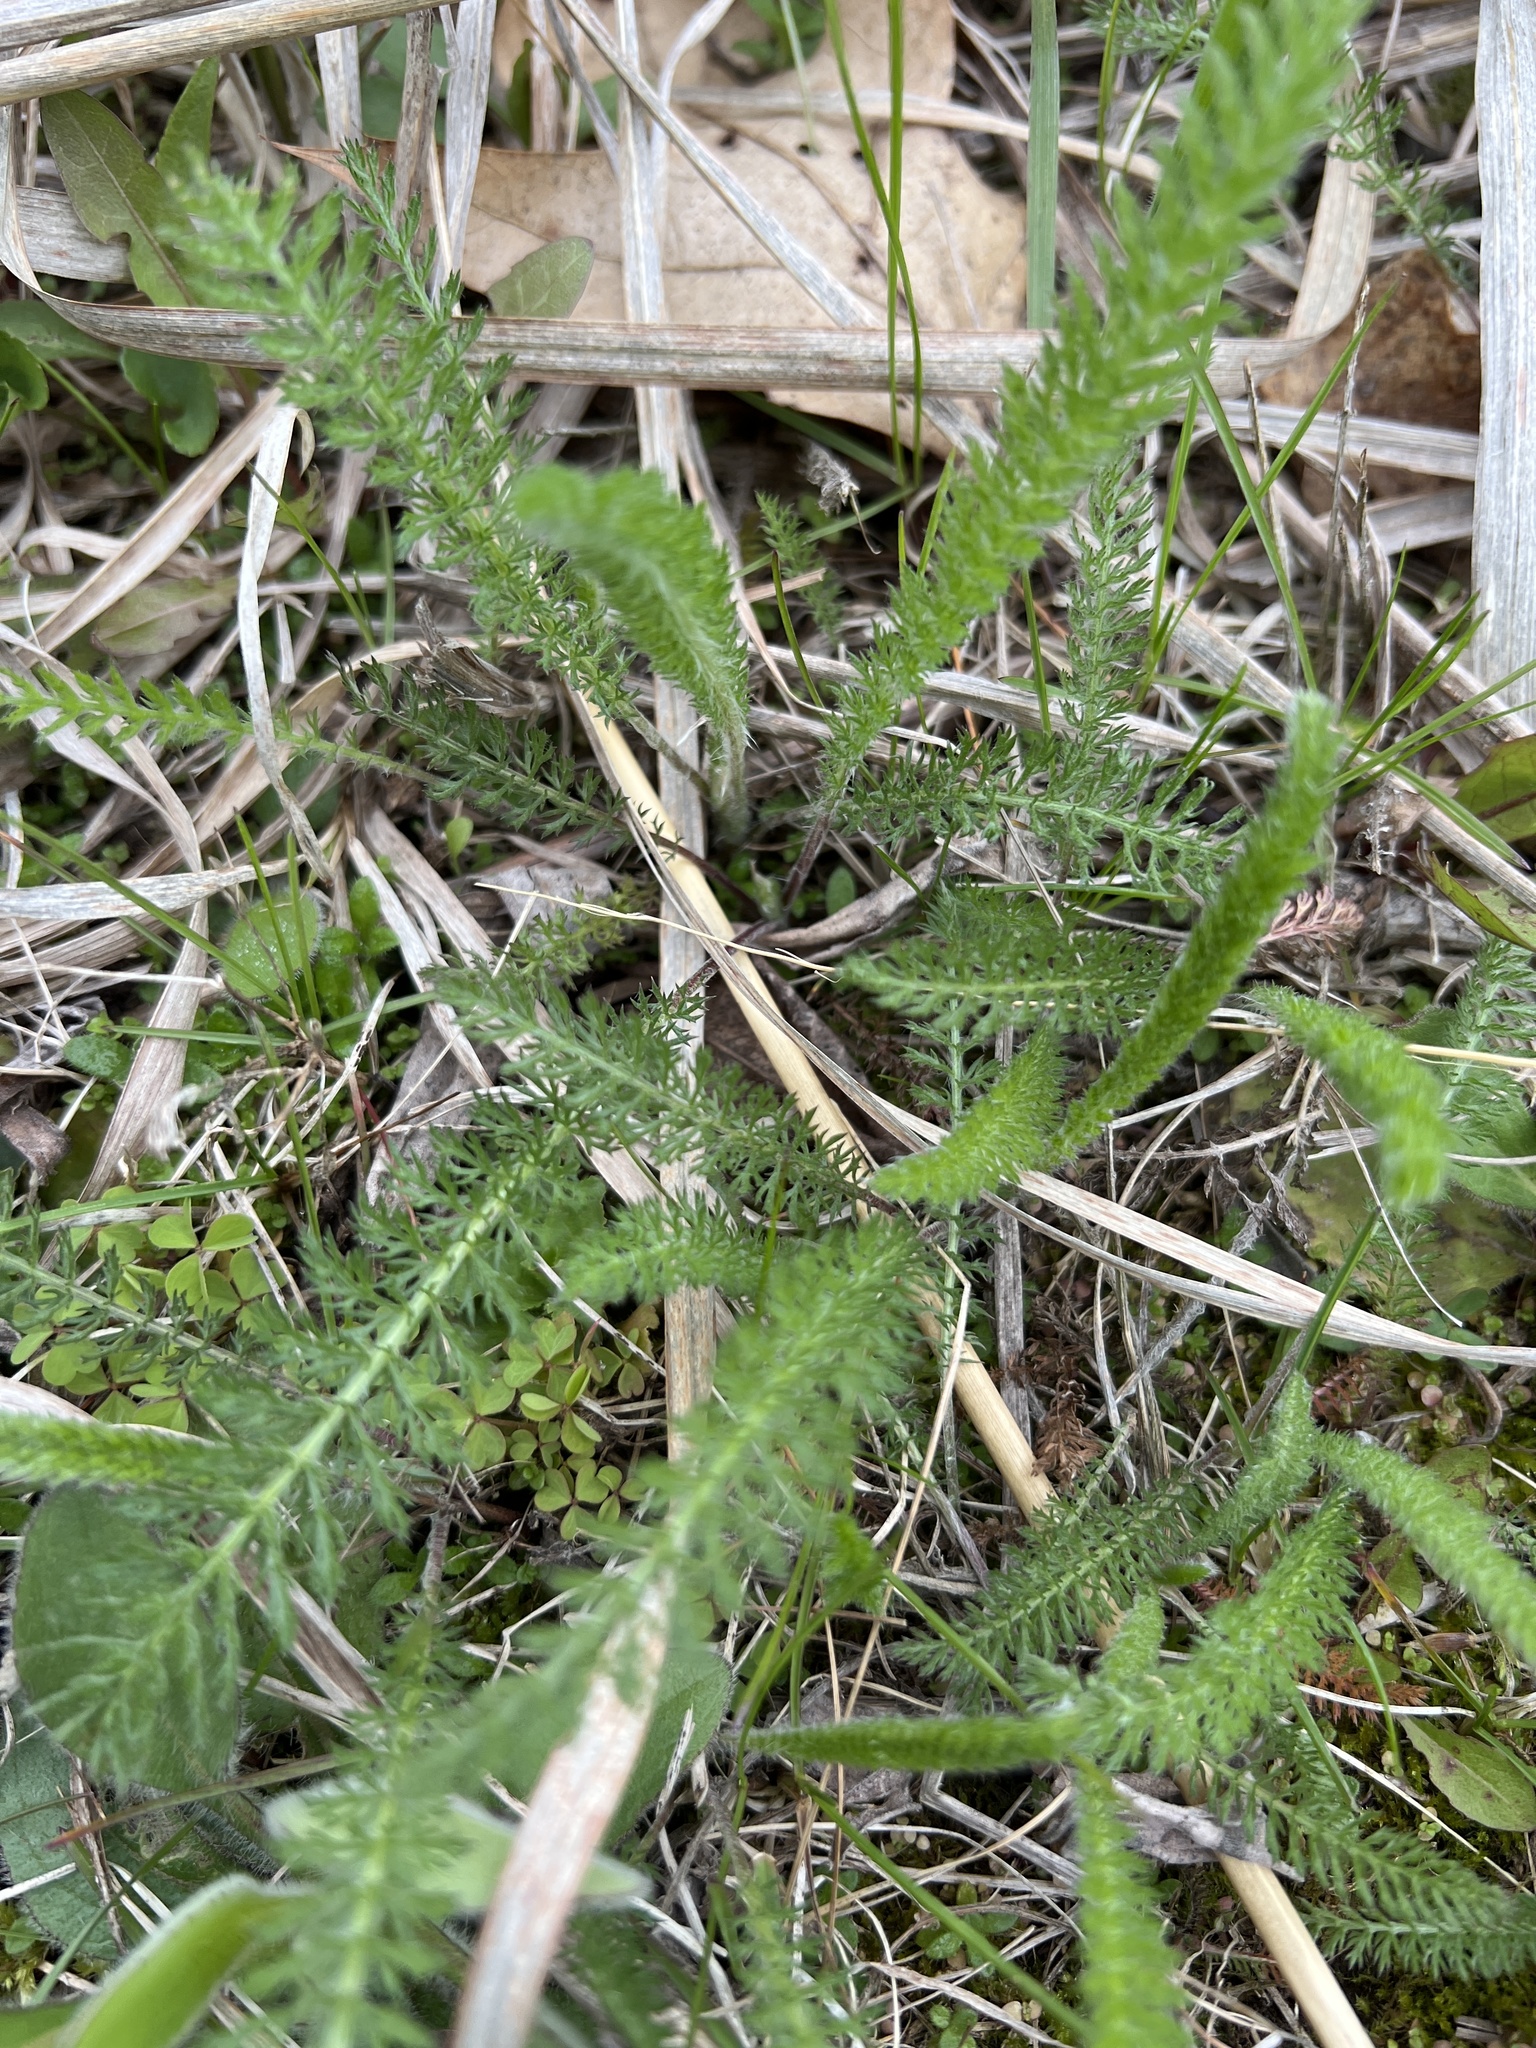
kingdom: Plantae
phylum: Tracheophyta
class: Magnoliopsida
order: Asterales
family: Asteraceae
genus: Achillea
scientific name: Achillea millefolium
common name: Yarrow
